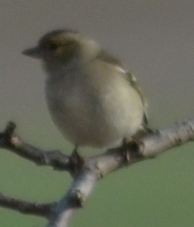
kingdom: Animalia
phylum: Chordata
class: Aves
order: Passeriformes
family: Fringillidae
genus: Fringilla
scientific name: Fringilla coelebs
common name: Common chaffinch
